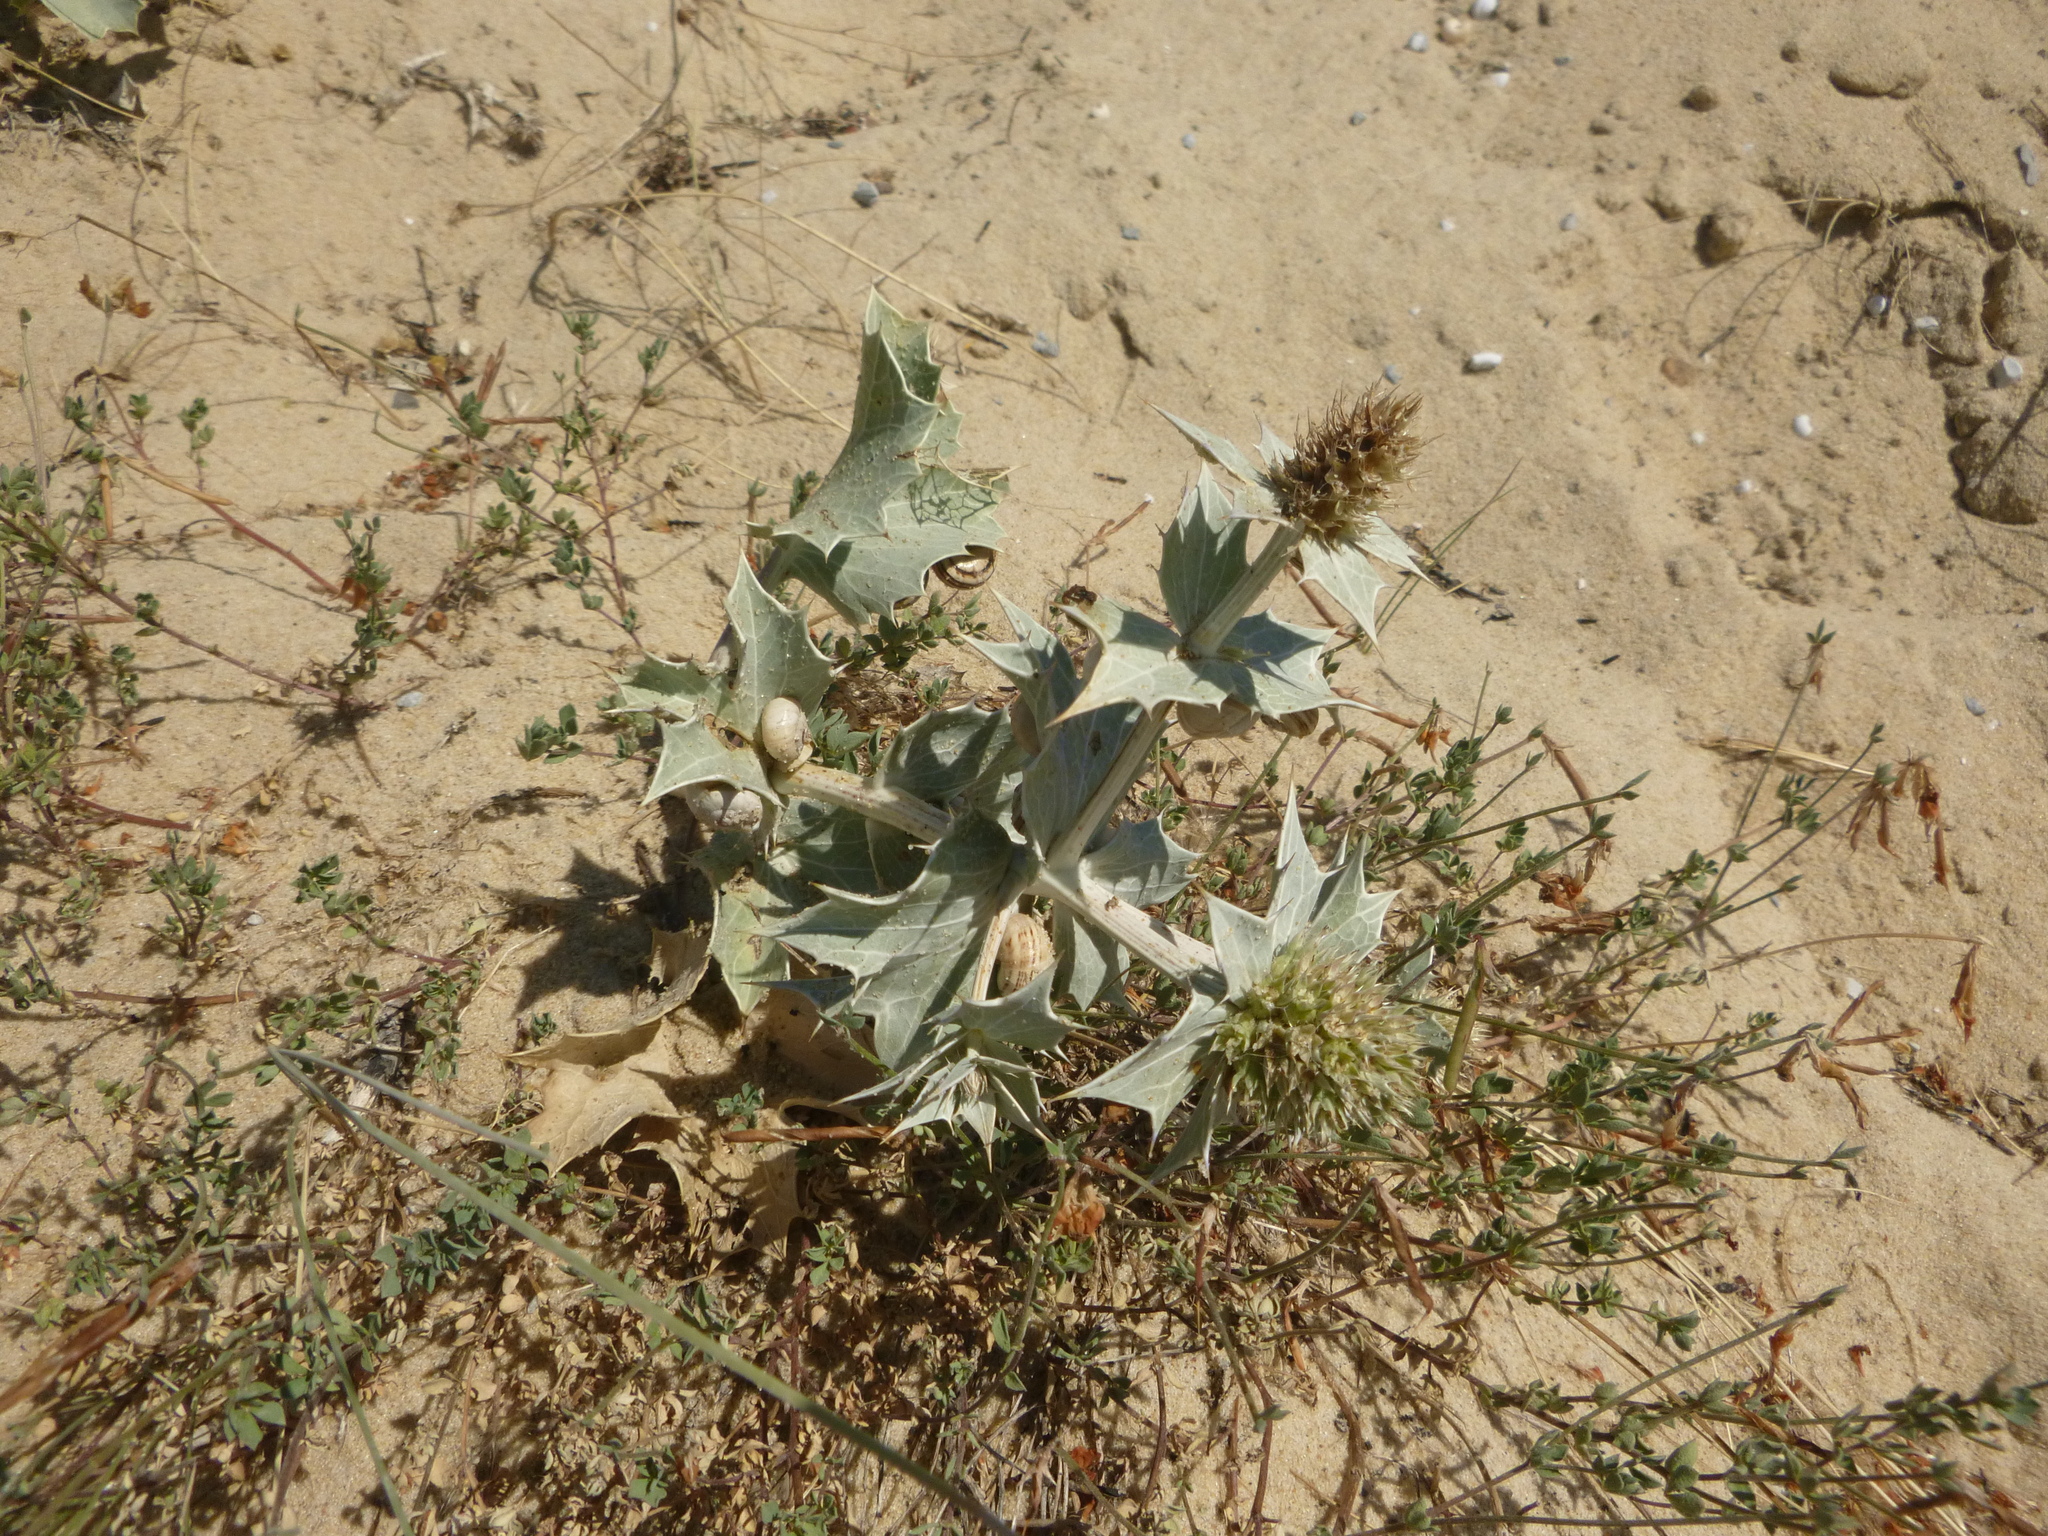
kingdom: Plantae
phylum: Tracheophyta
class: Magnoliopsida
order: Apiales
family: Apiaceae
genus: Eryngium
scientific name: Eryngium maritimum
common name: Sea-holly
